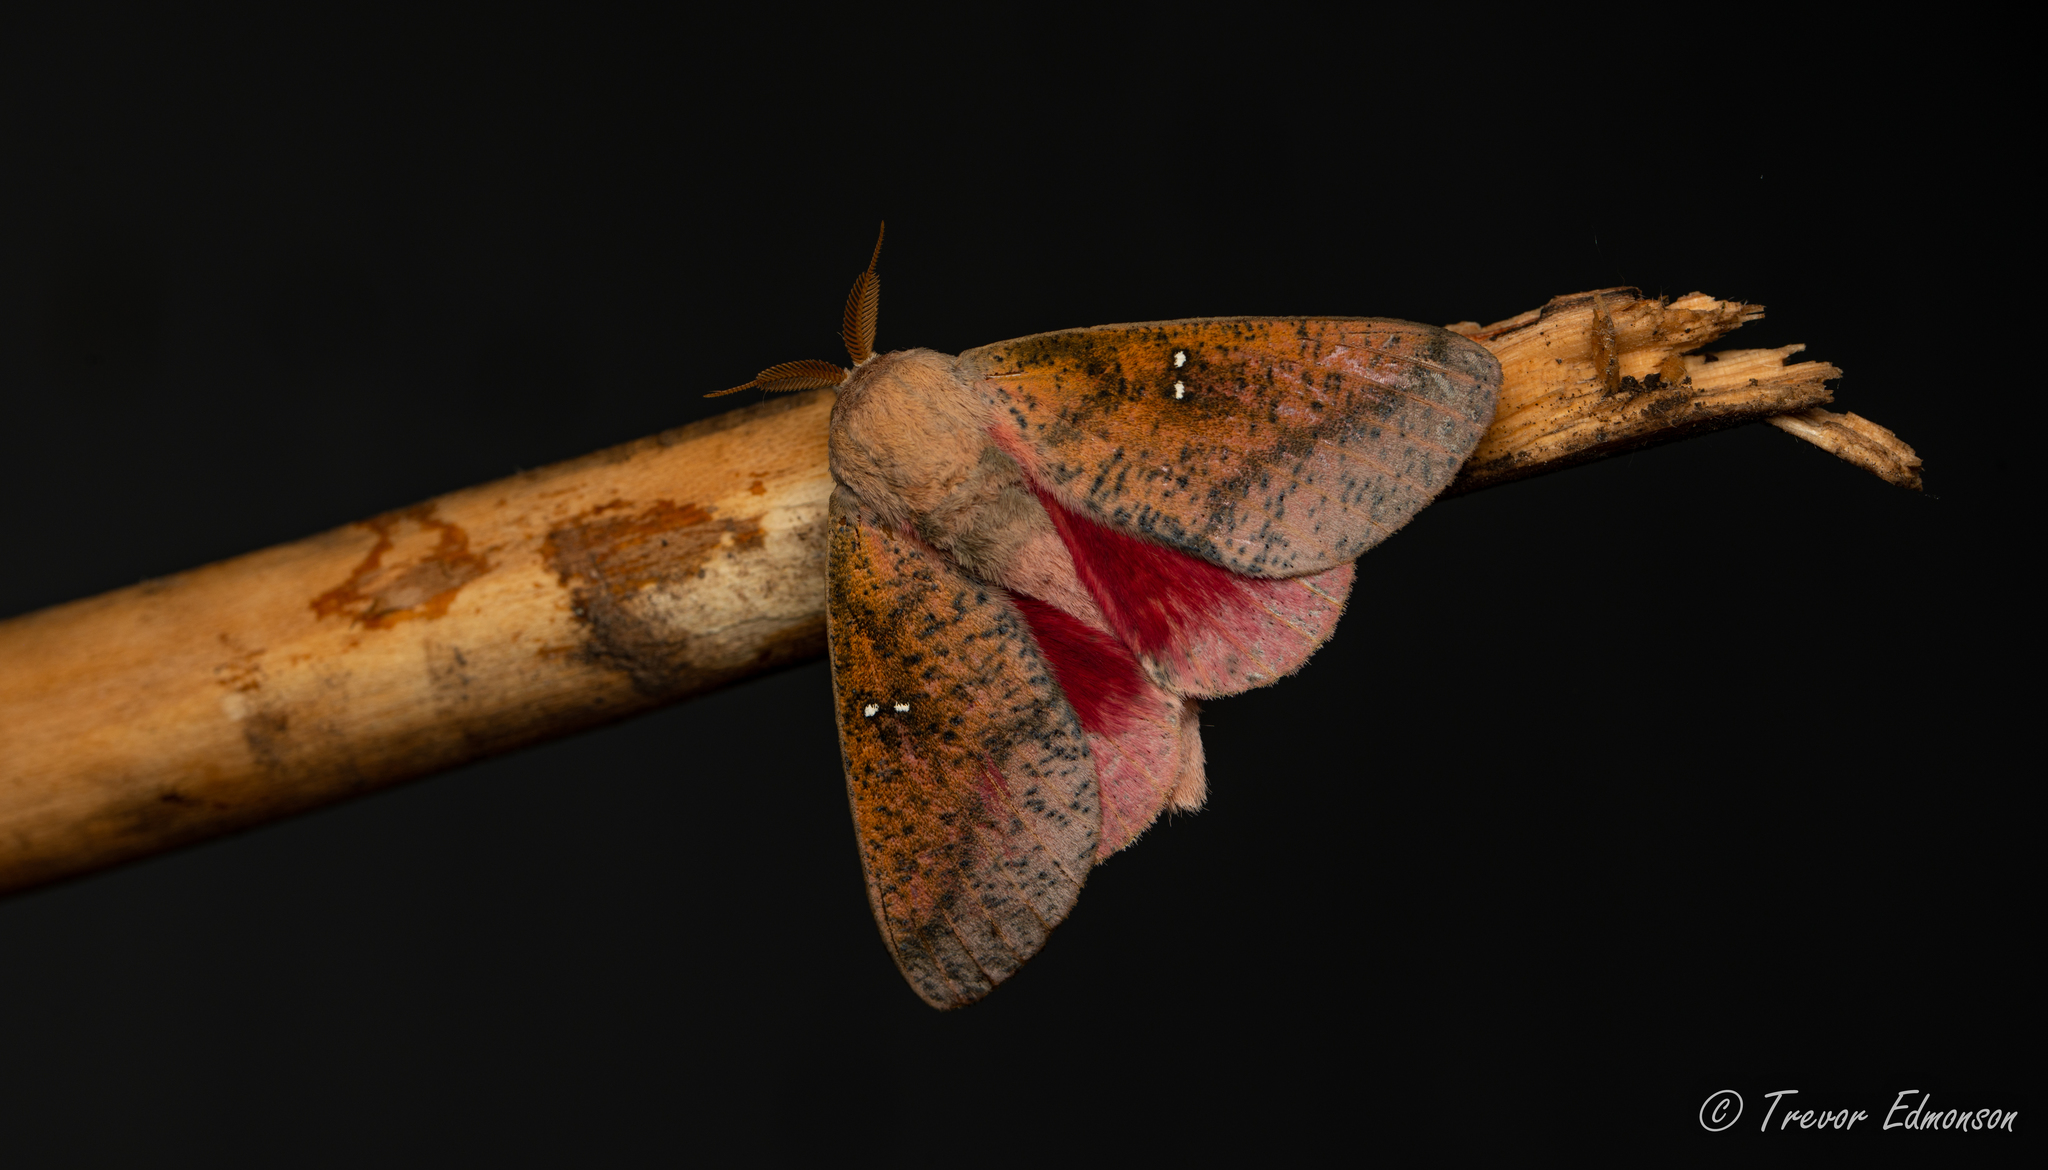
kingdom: Animalia
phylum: Arthropoda
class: Insecta
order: Lepidoptera
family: Saturniidae
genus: Syssphinx
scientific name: Syssphinx bicolor
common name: Honey locust moth
